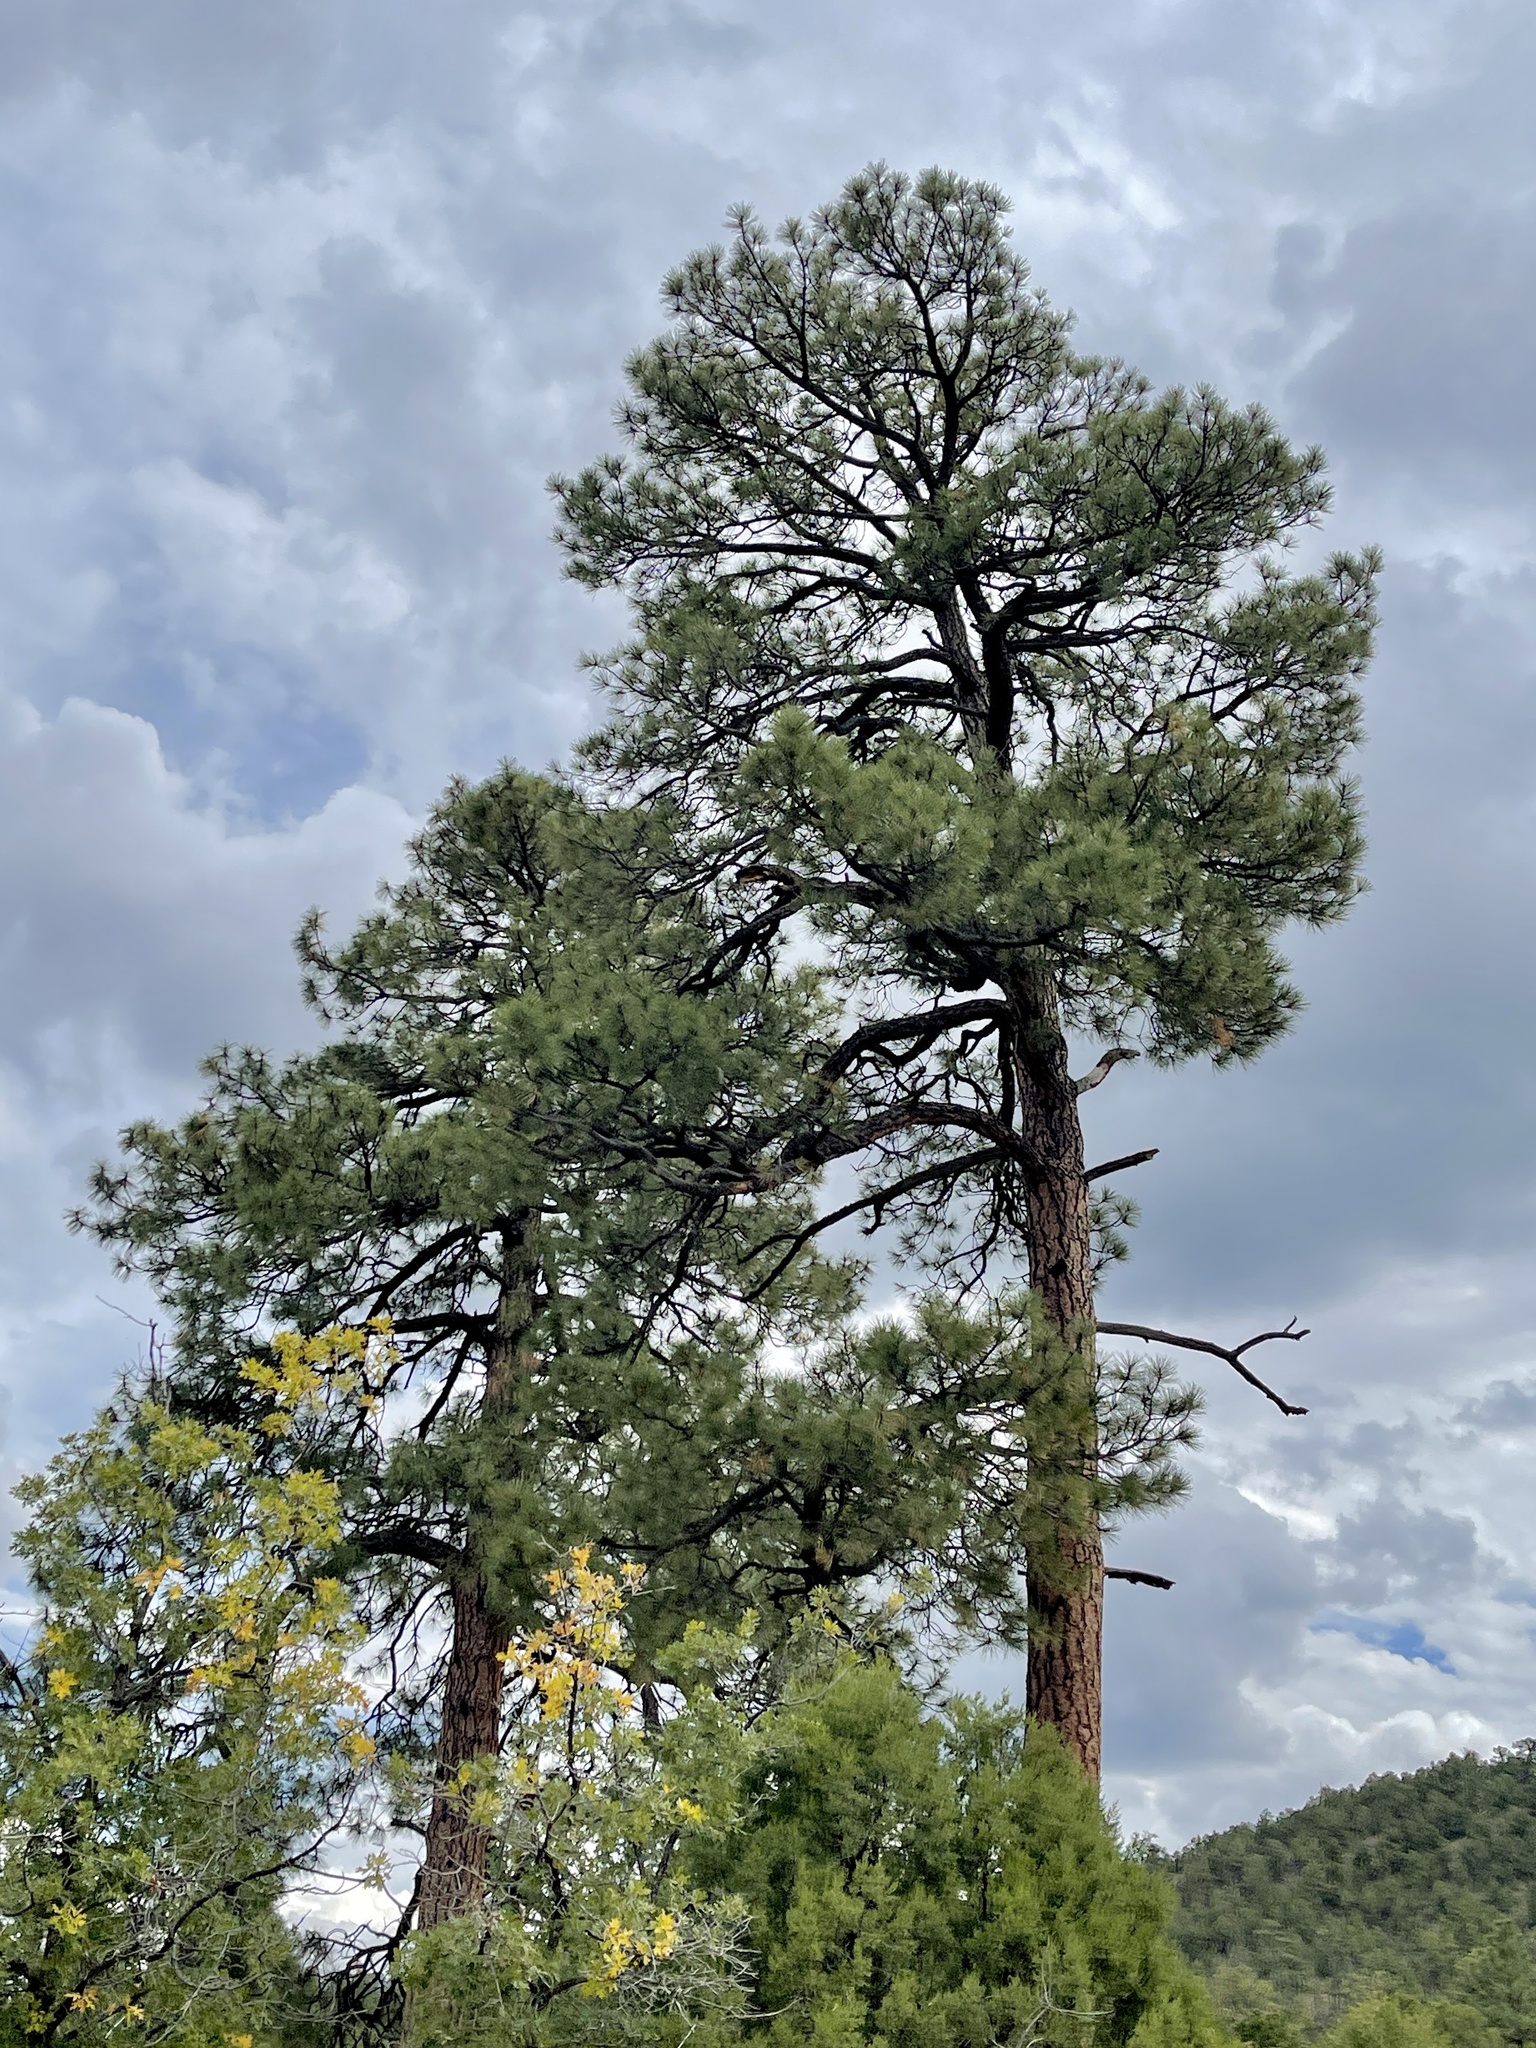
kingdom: Plantae
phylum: Tracheophyta
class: Pinopsida
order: Pinales
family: Pinaceae
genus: Pinus
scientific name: Pinus ponderosa
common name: Western yellow-pine
